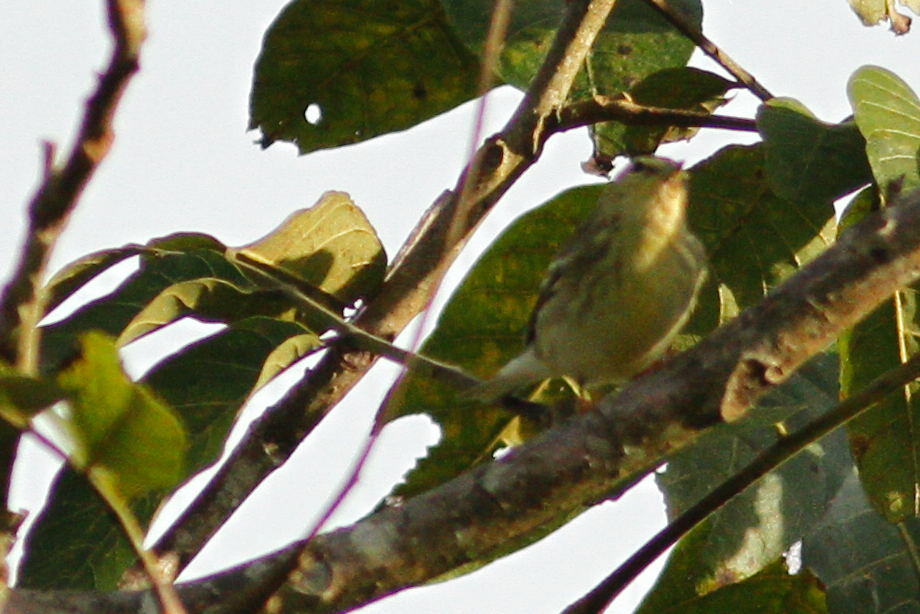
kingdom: Animalia
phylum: Chordata
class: Aves
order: Passeriformes
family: Parulidae
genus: Setophaga
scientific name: Setophaga striata
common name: Blackpoll warbler
